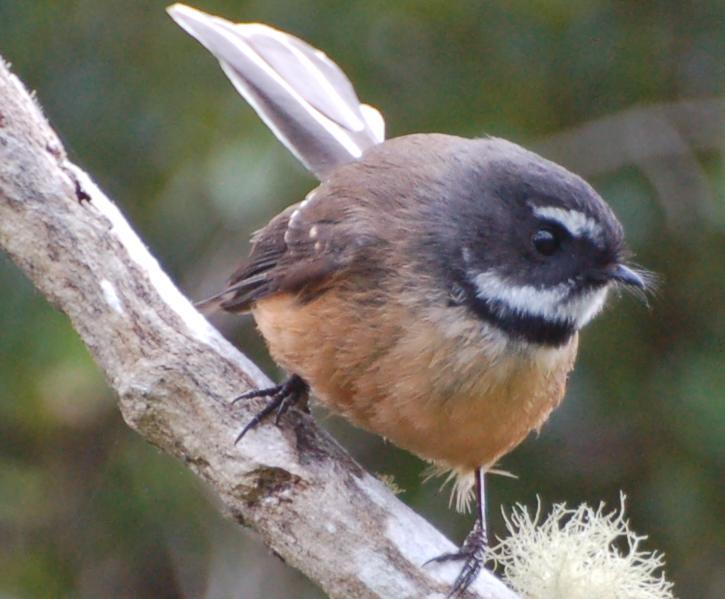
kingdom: Animalia
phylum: Chordata
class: Aves
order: Passeriformes
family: Rhipiduridae
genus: Rhipidura
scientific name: Rhipidura fuliginosa
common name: New zealand fantail
